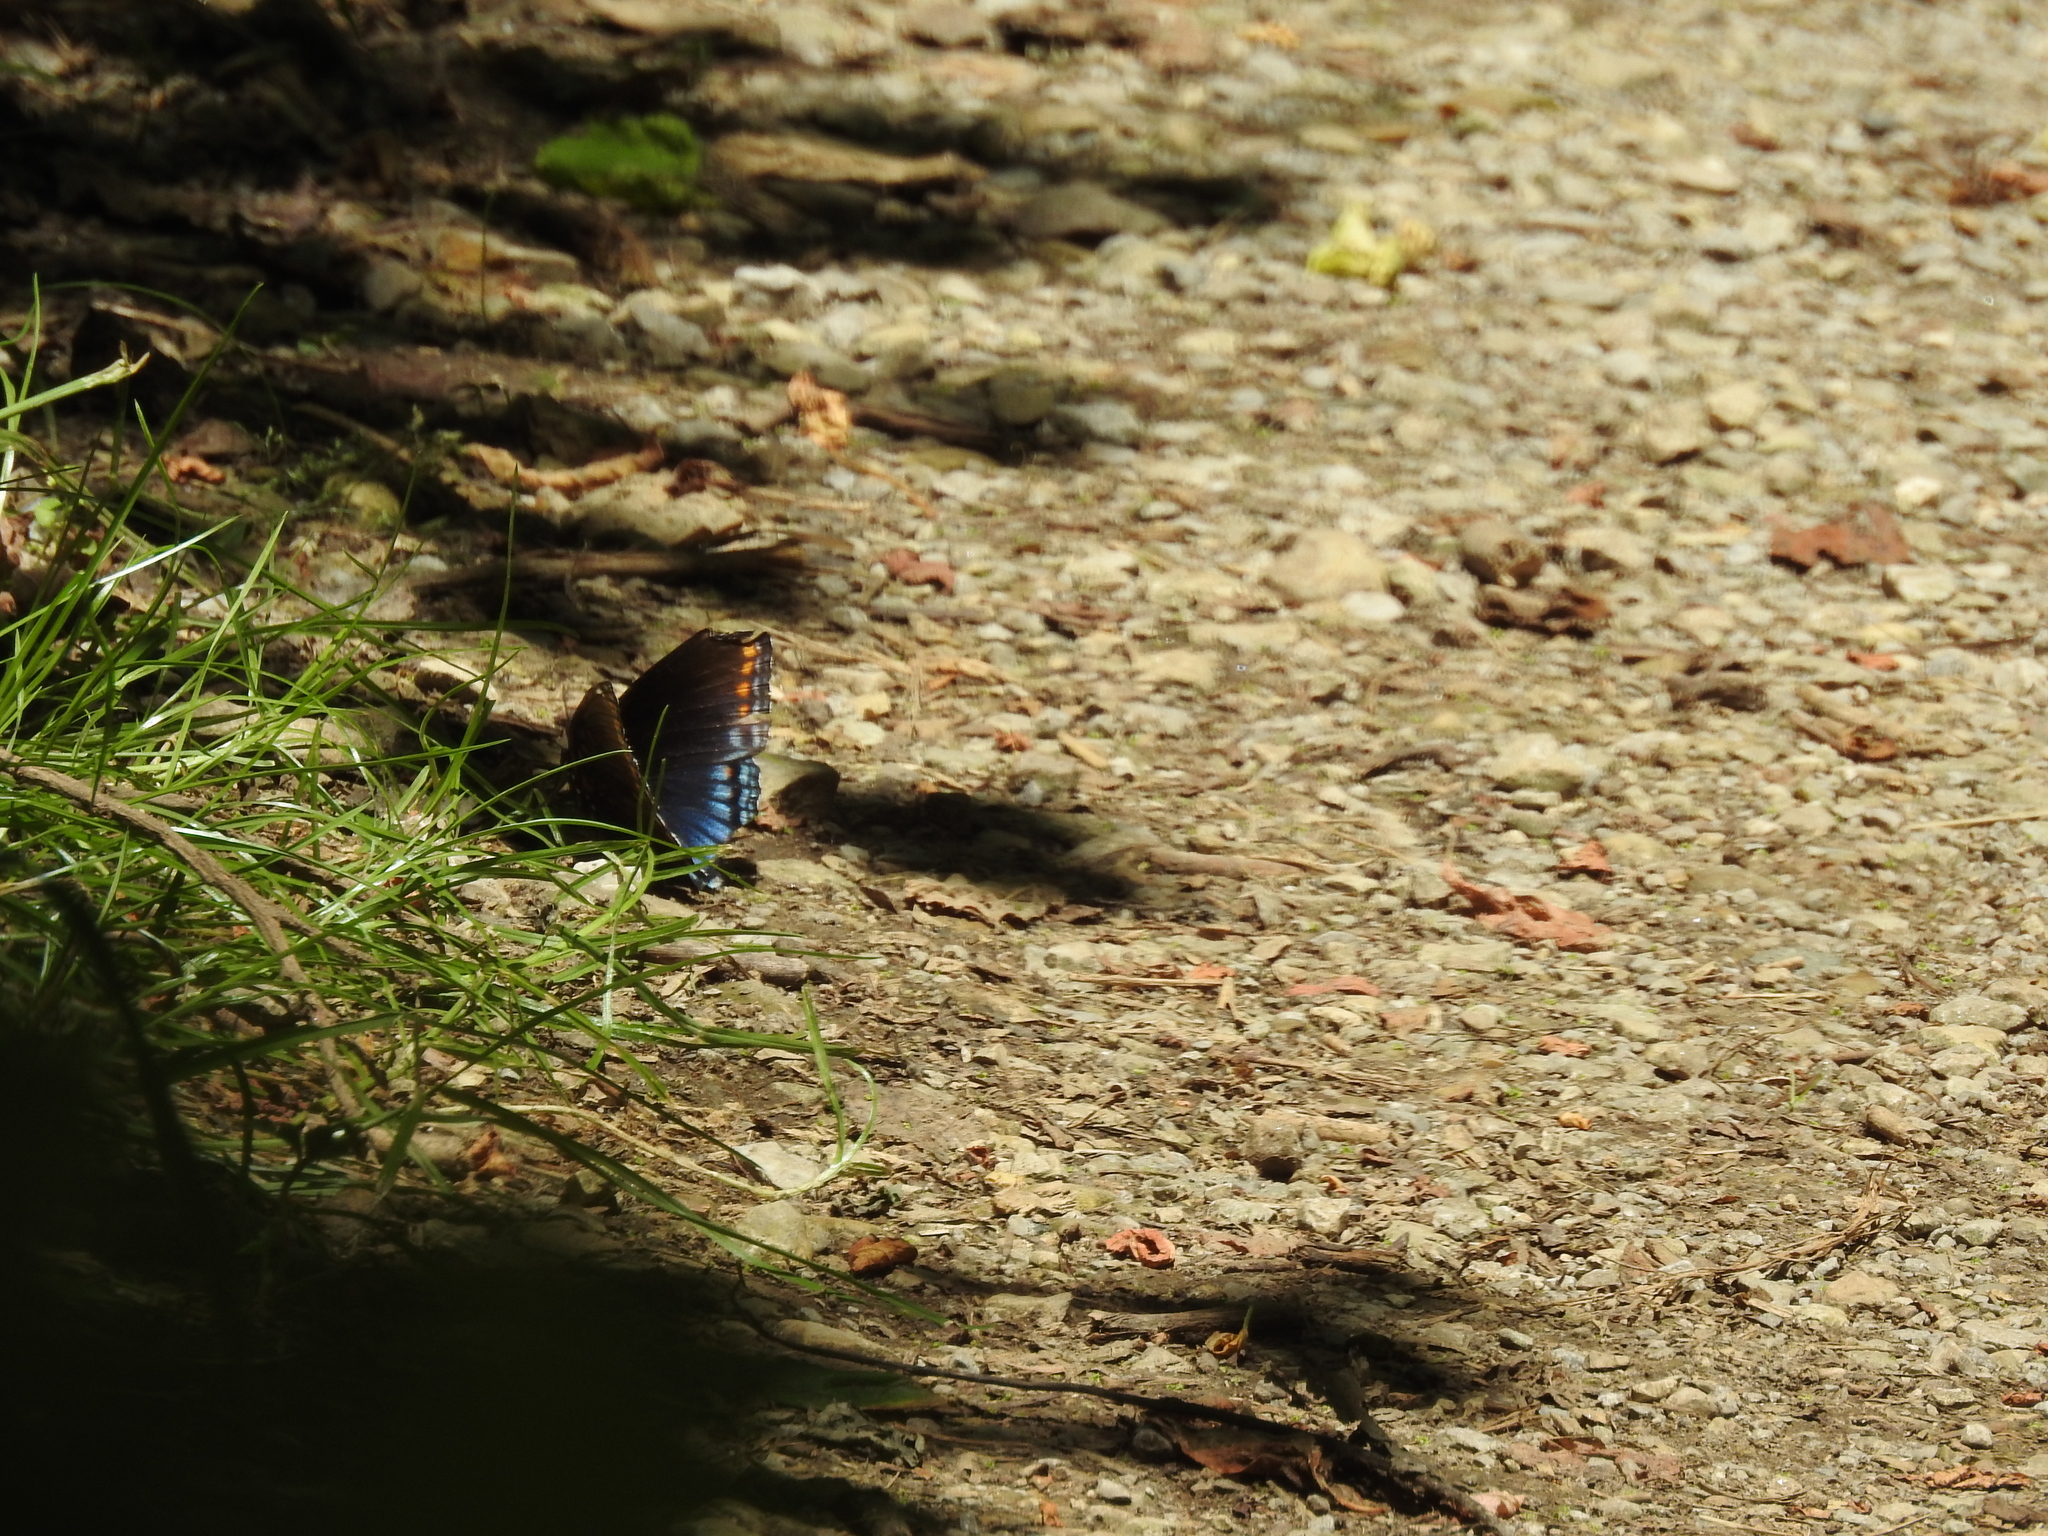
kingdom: Animalia
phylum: Arthropoda
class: Insecta
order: Lepidoptera
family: Nymphalidae
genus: Limenitis
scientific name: Limenitis astyanax
